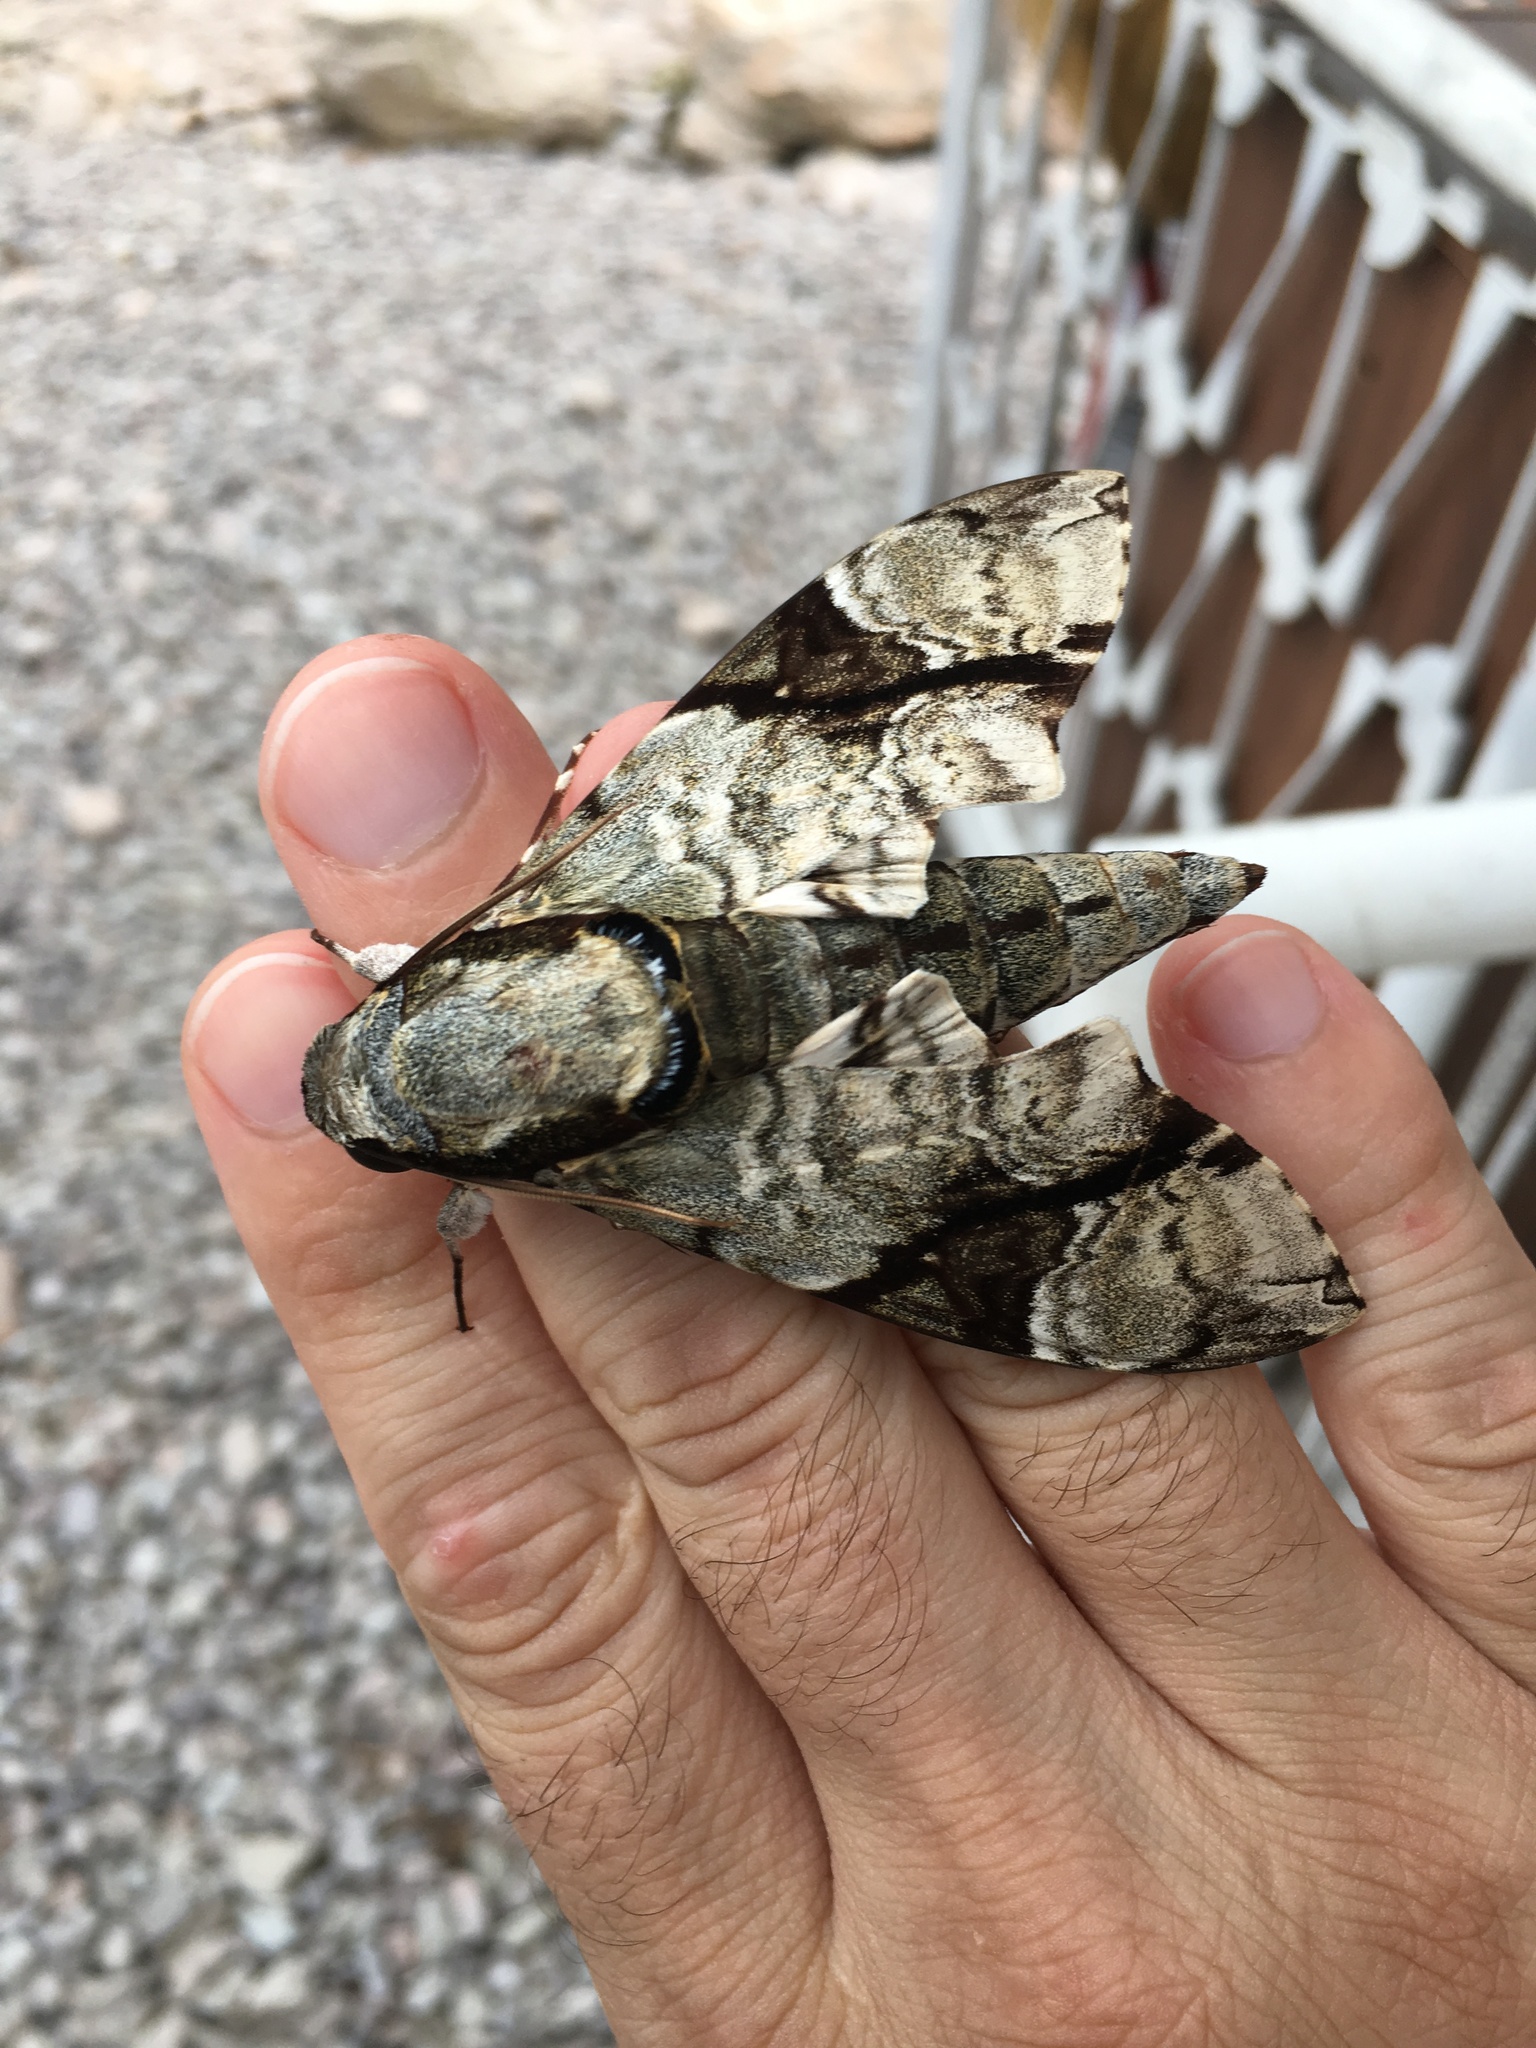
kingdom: Animalia
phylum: Arthropoda
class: Insecta
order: Lepidoptera
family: Sphingidae
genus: Megacorma
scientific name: Megacorma obliqua
